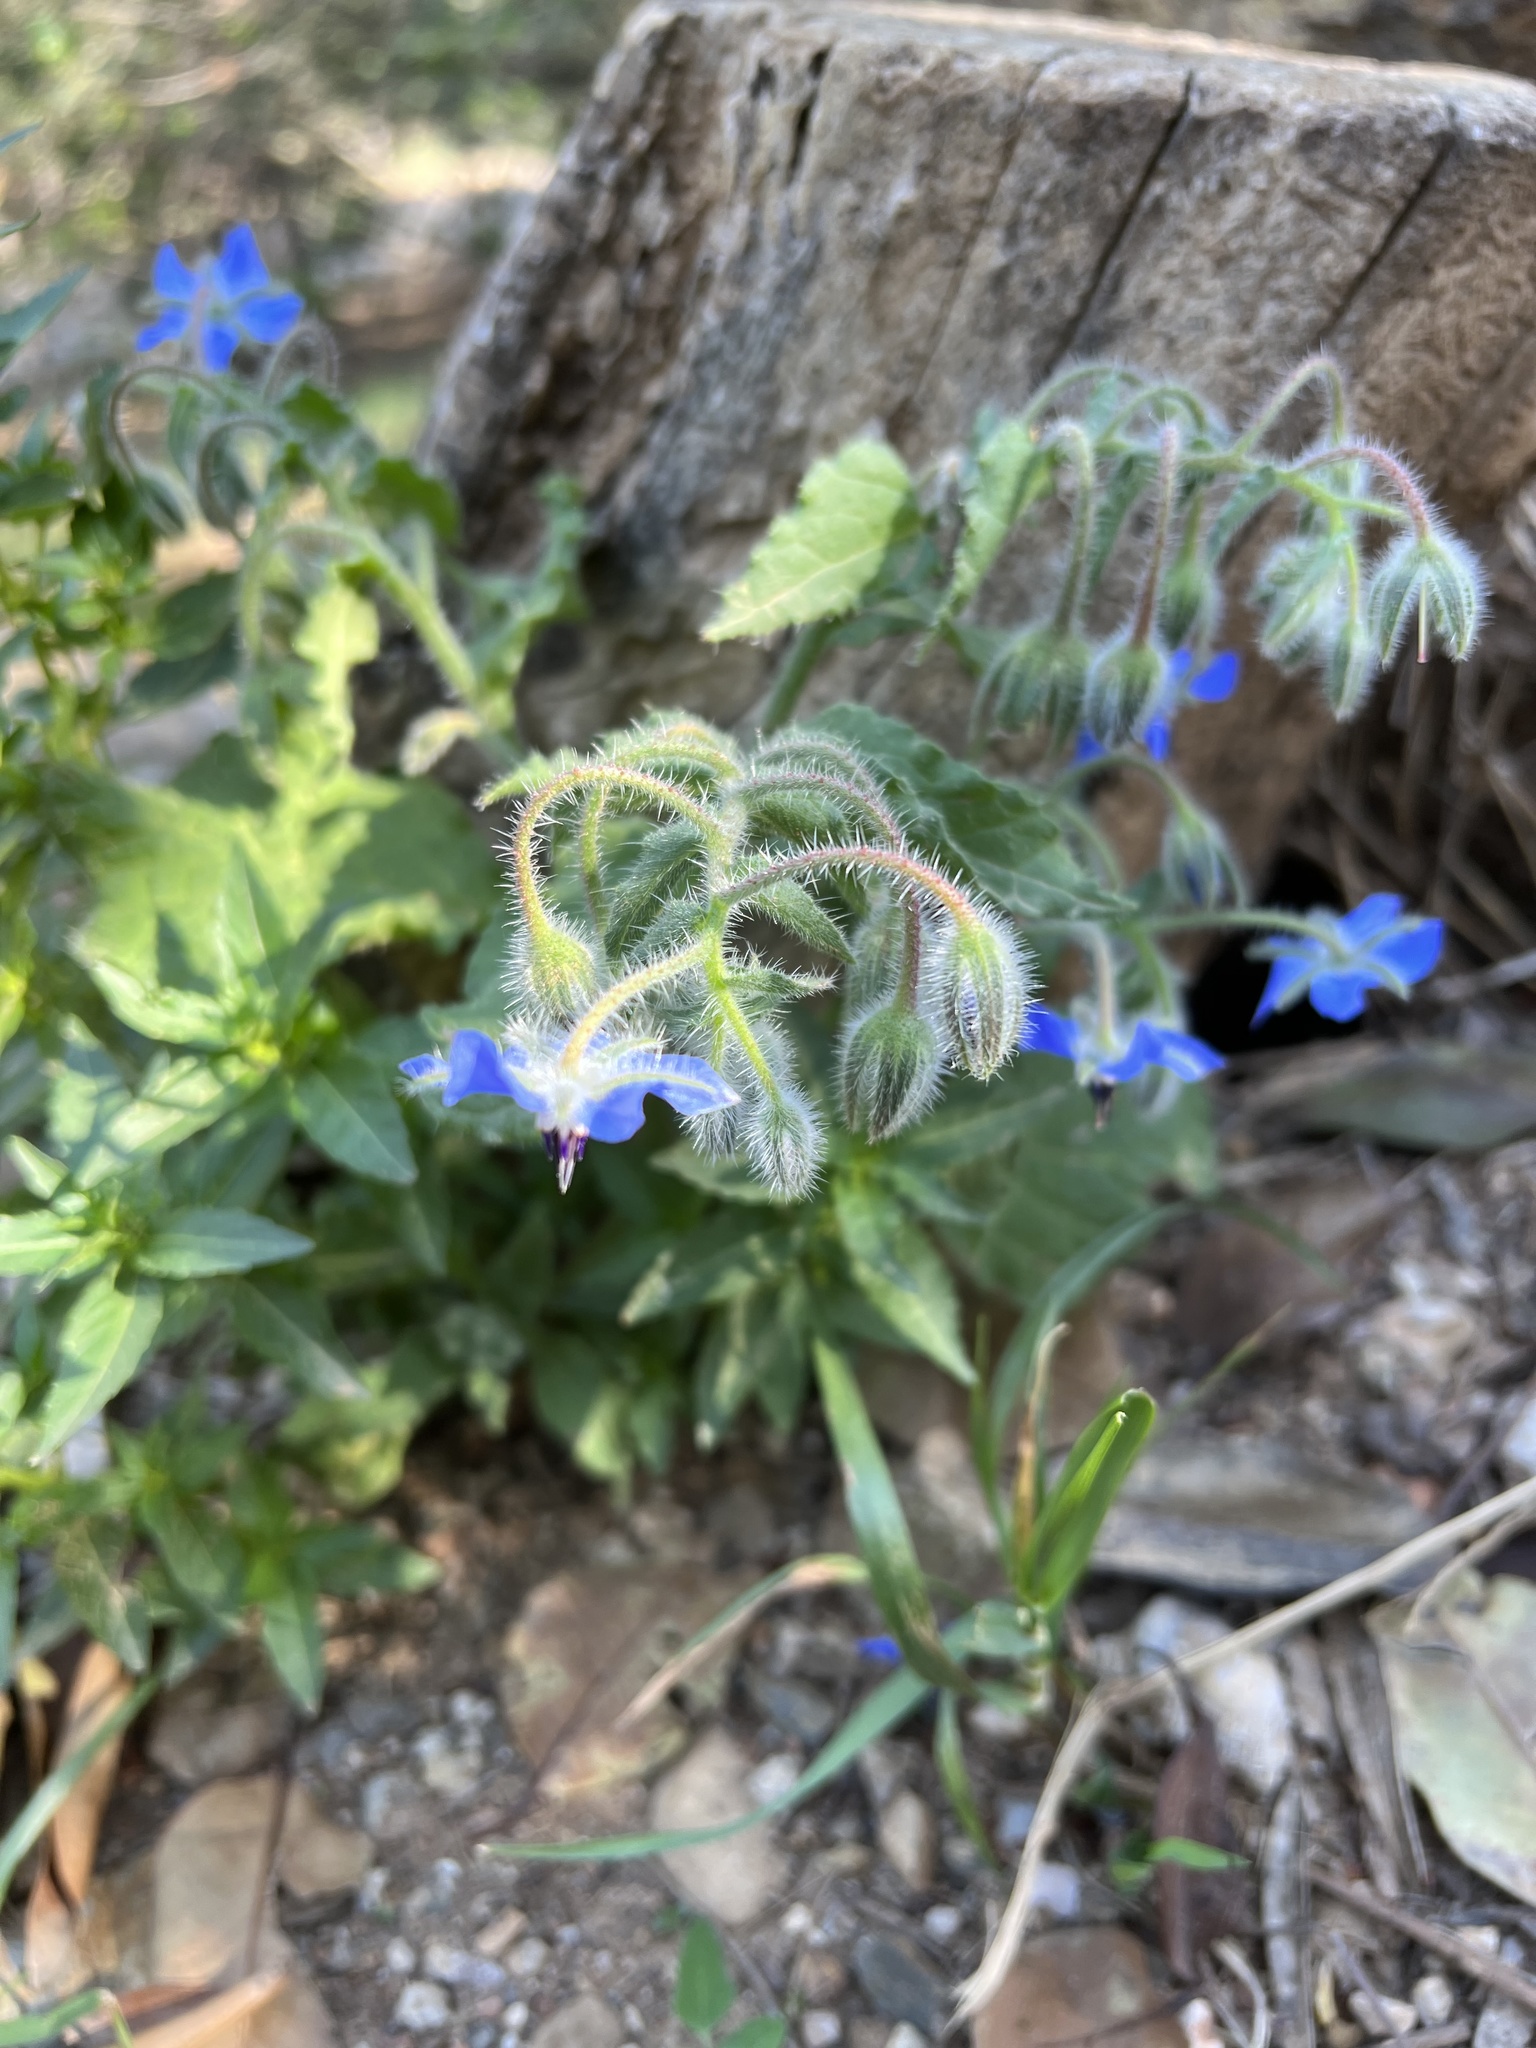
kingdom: Plantae
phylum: Tracheophyta
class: Magnoliopsida
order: Boraginales
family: Boraginaceae
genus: Borago
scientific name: Borago officinalis
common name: Borage
